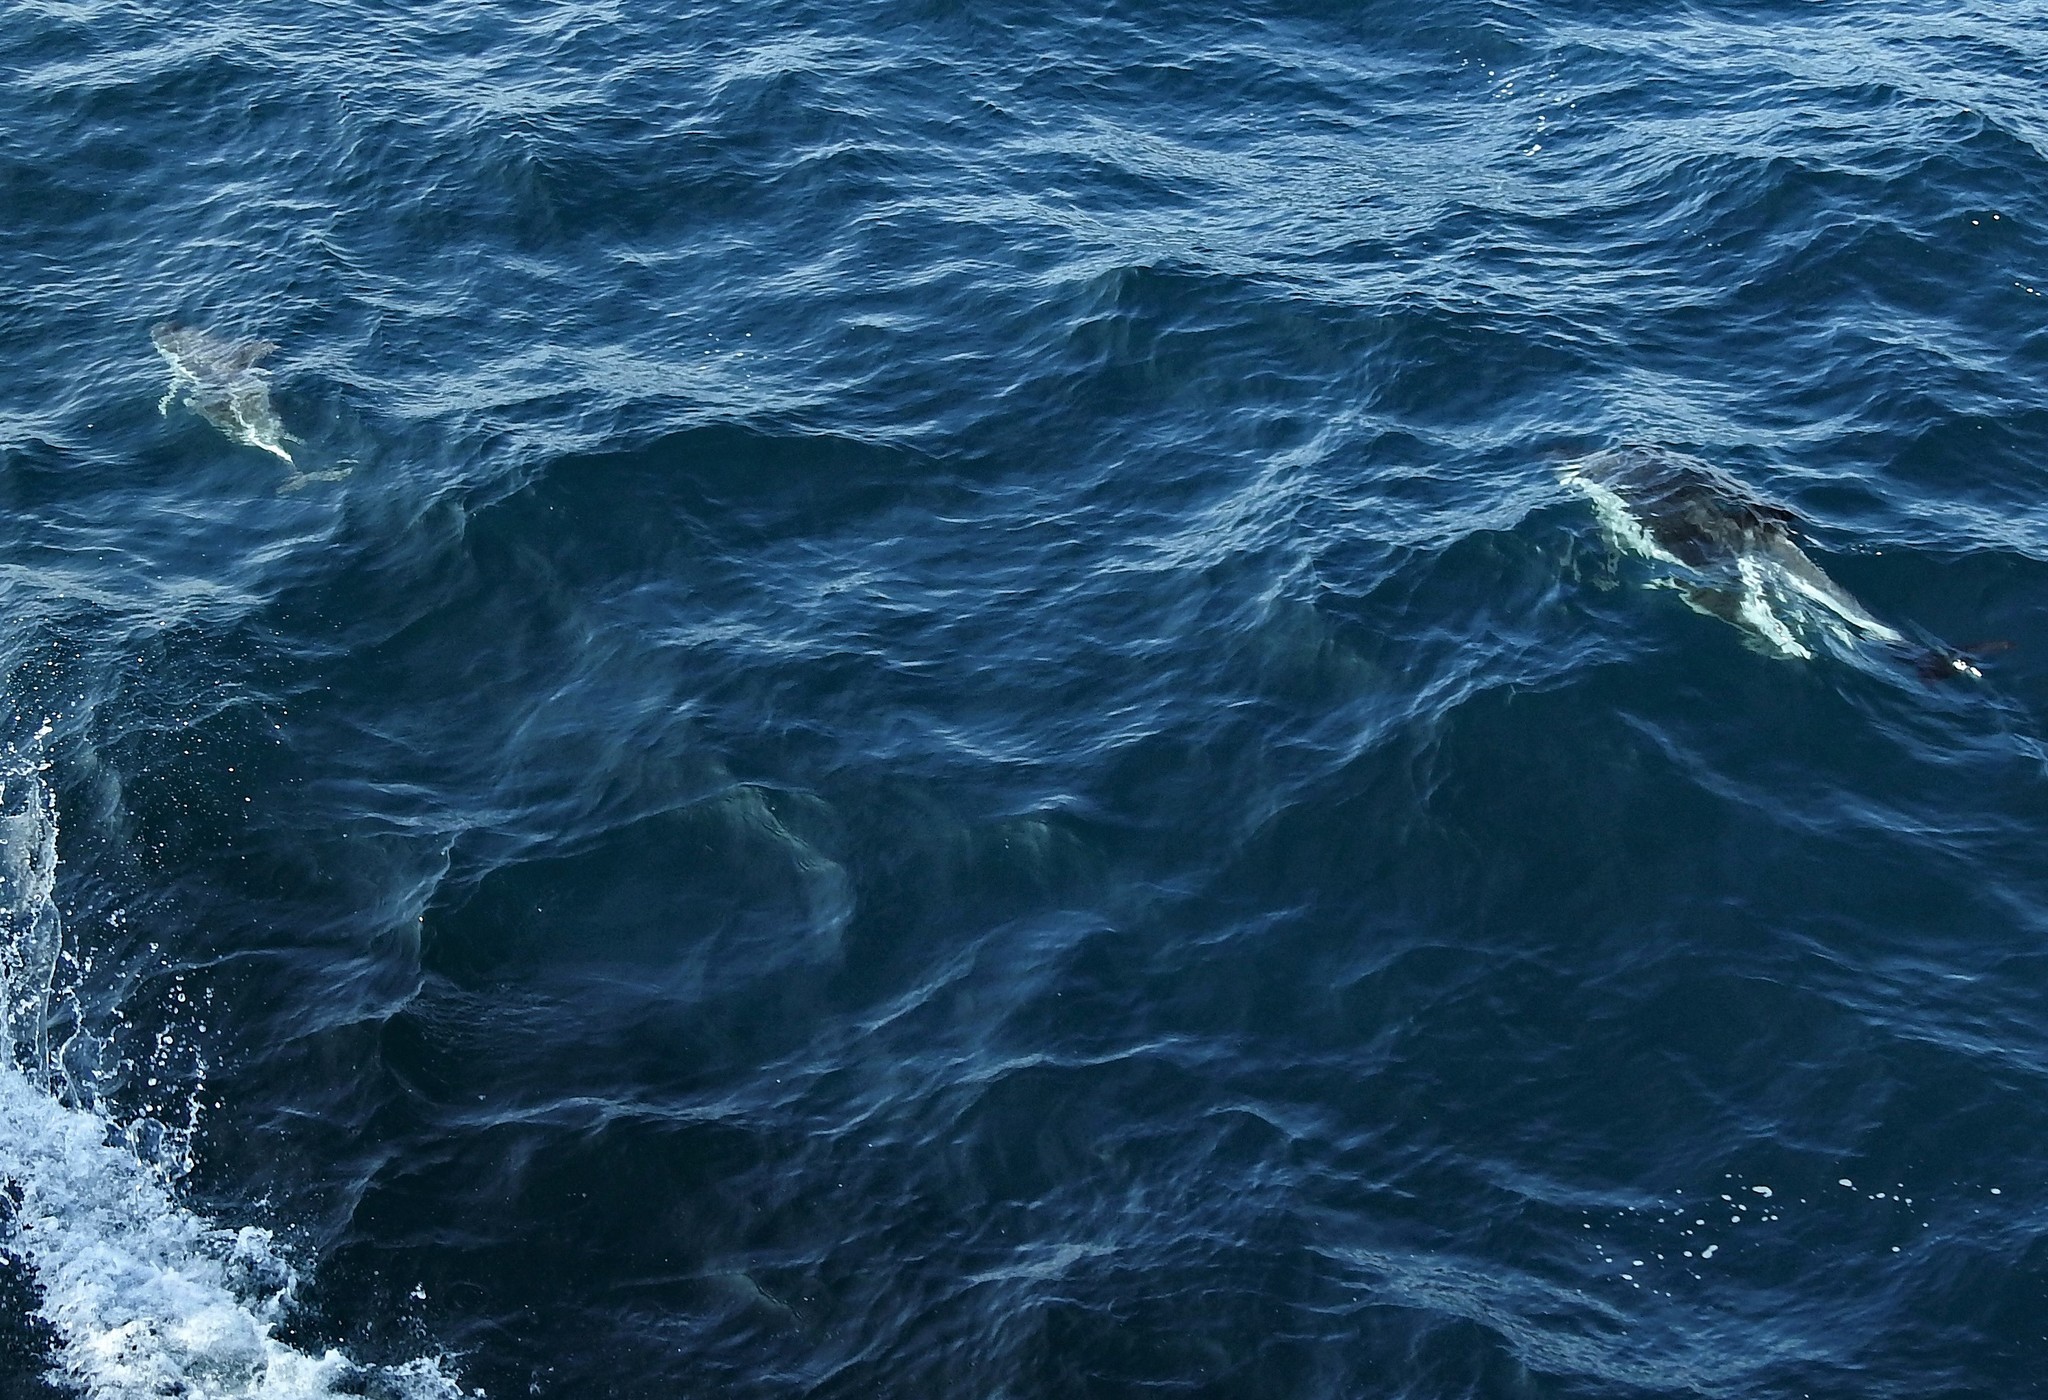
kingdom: Animalia
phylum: Chordata
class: Mammalia
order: Cetacea
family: Delphinidae
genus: Lagenorhynchus
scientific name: Lagenorhynchus obscurus
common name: Dusky dolphin
